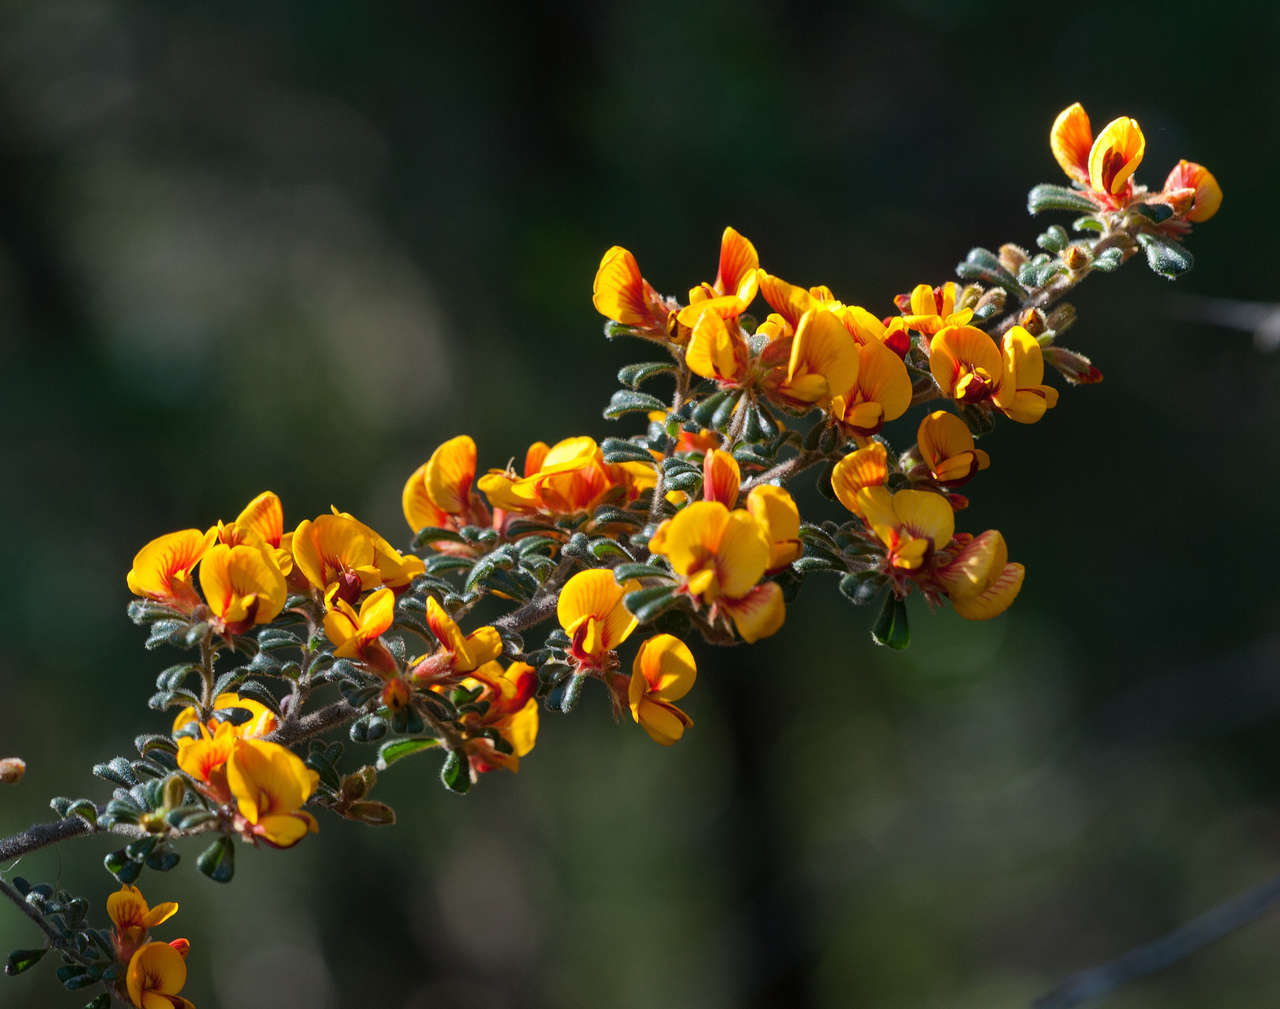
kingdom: Plantae
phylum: Tracheophyta
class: Magnoliopsida
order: Fabales
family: Fabaceae
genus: Pultenaea
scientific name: Pultenaea scabra
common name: Rough bush-pea
